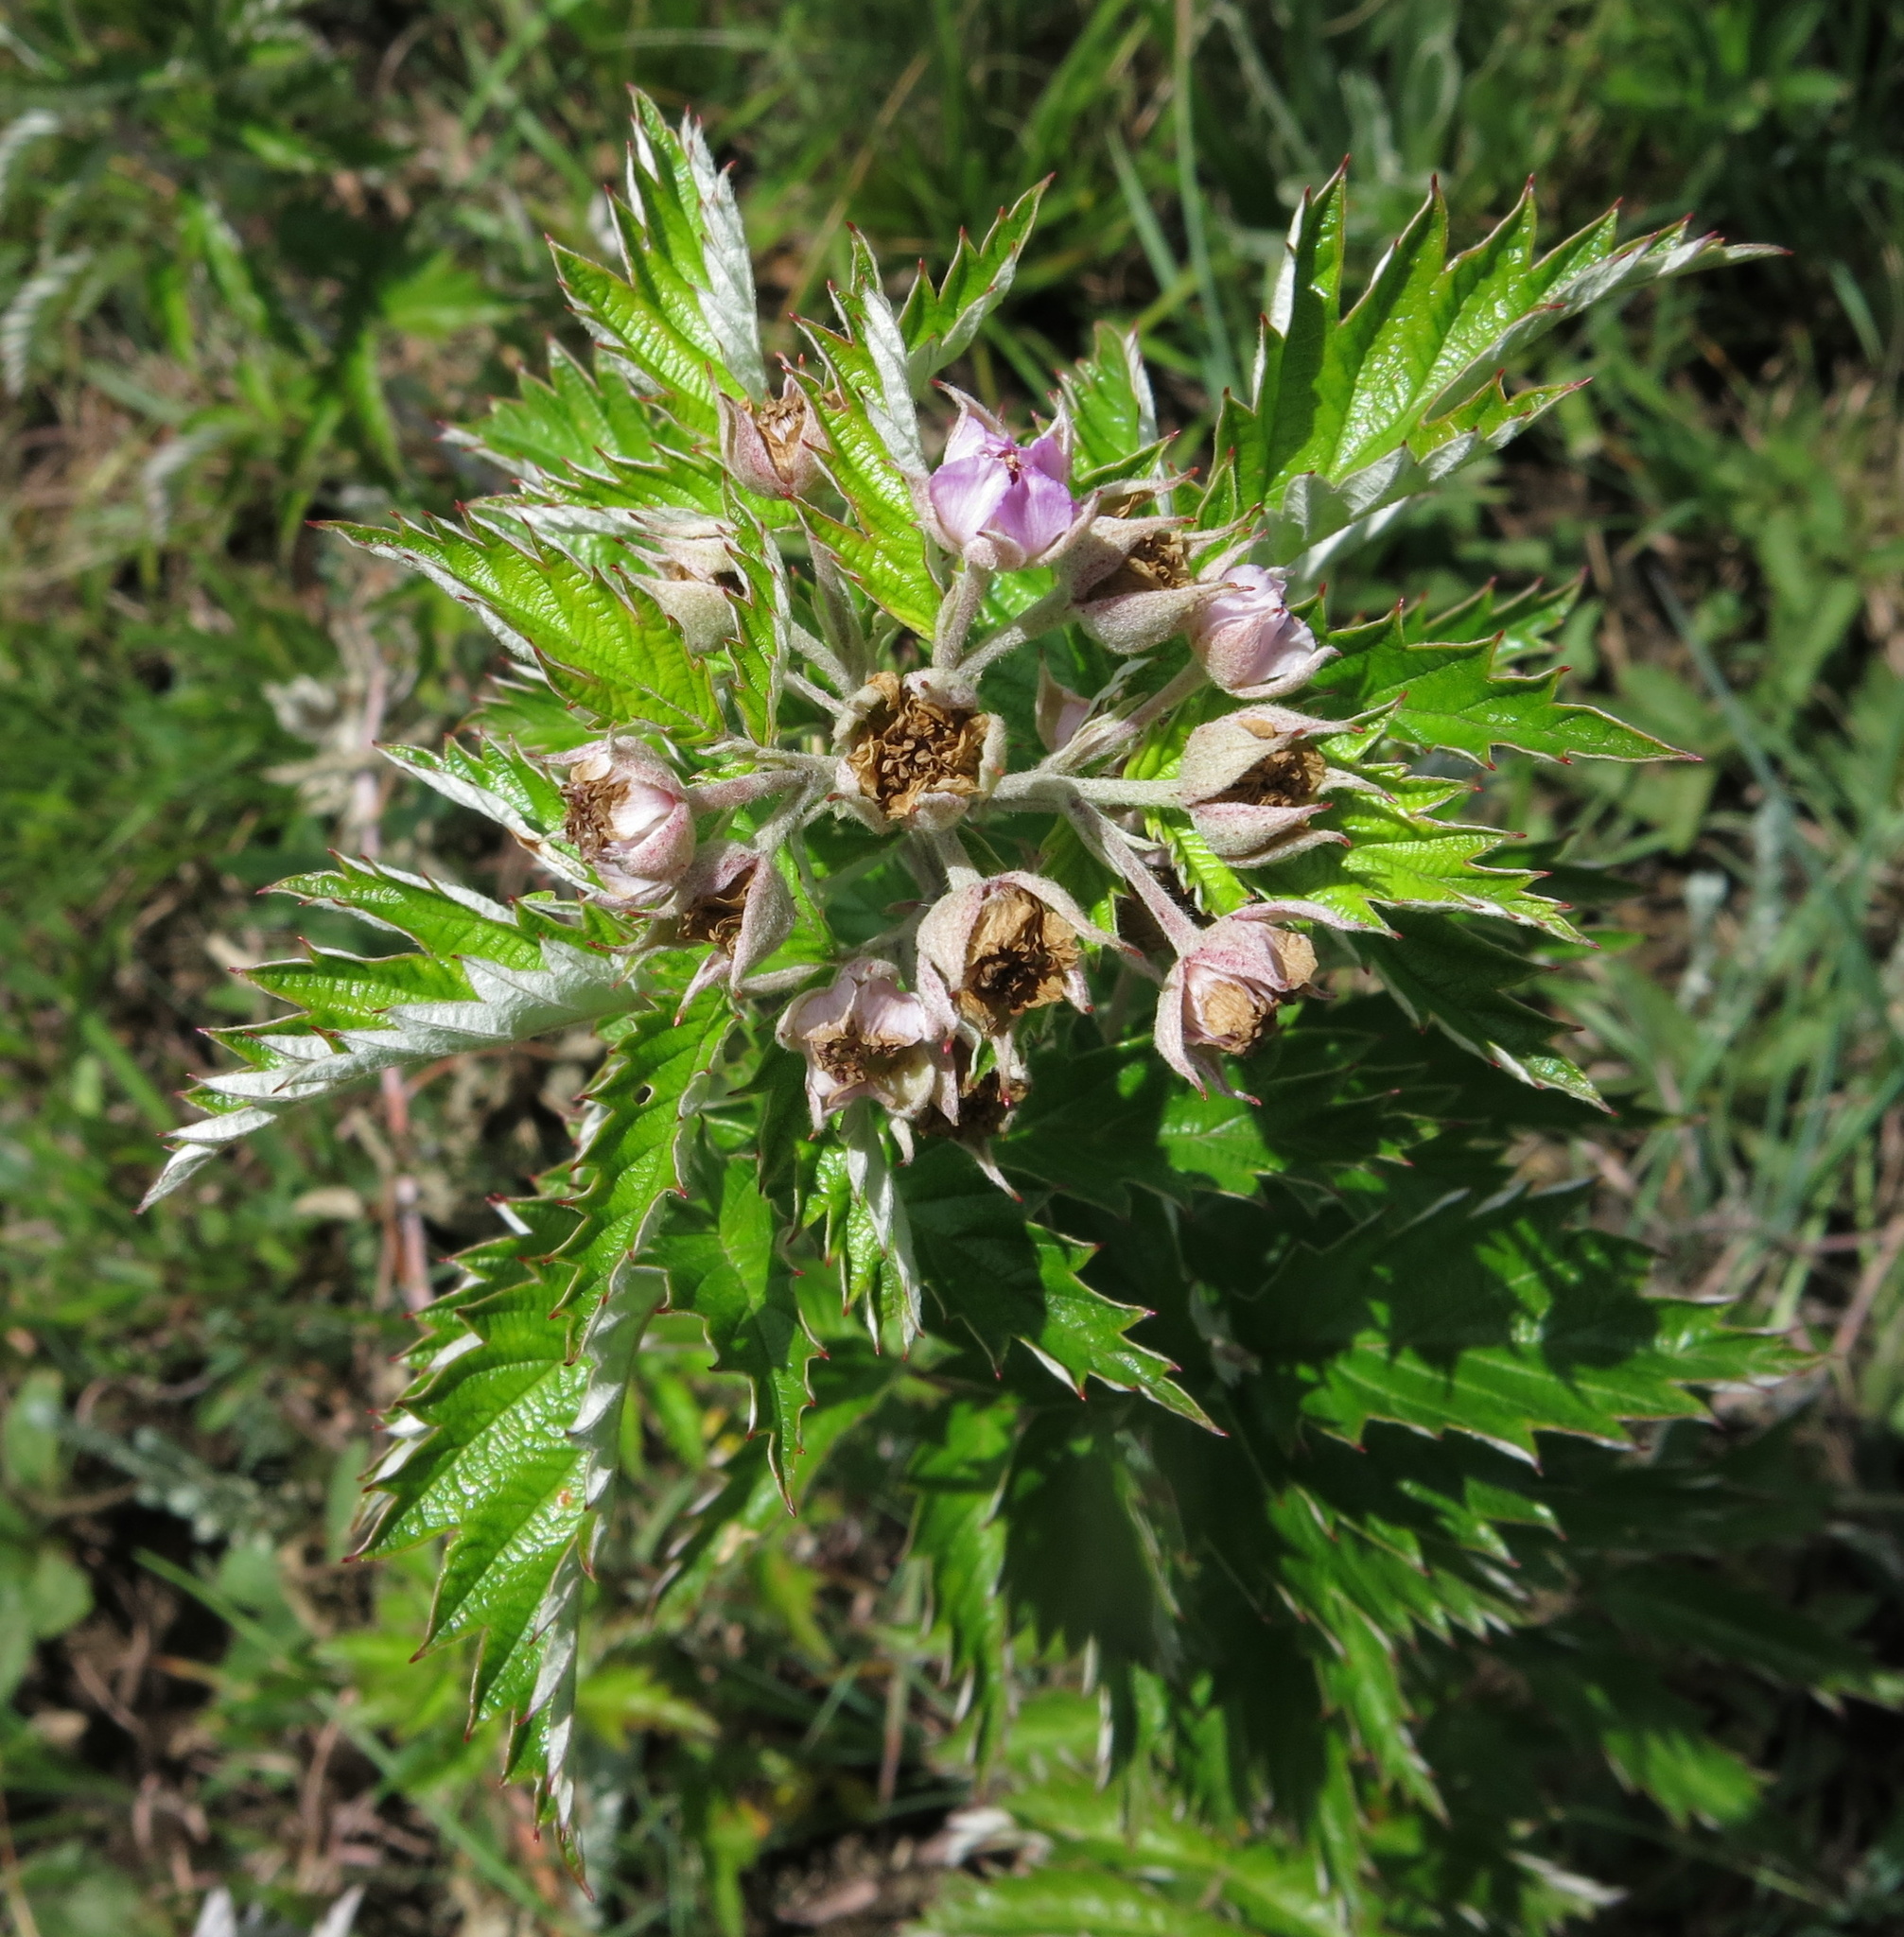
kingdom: Plantae
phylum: Tracheophyta
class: Magnoliopsida
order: Rosales
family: Rosaceae
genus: Rubus
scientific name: Rubus ludwigii
